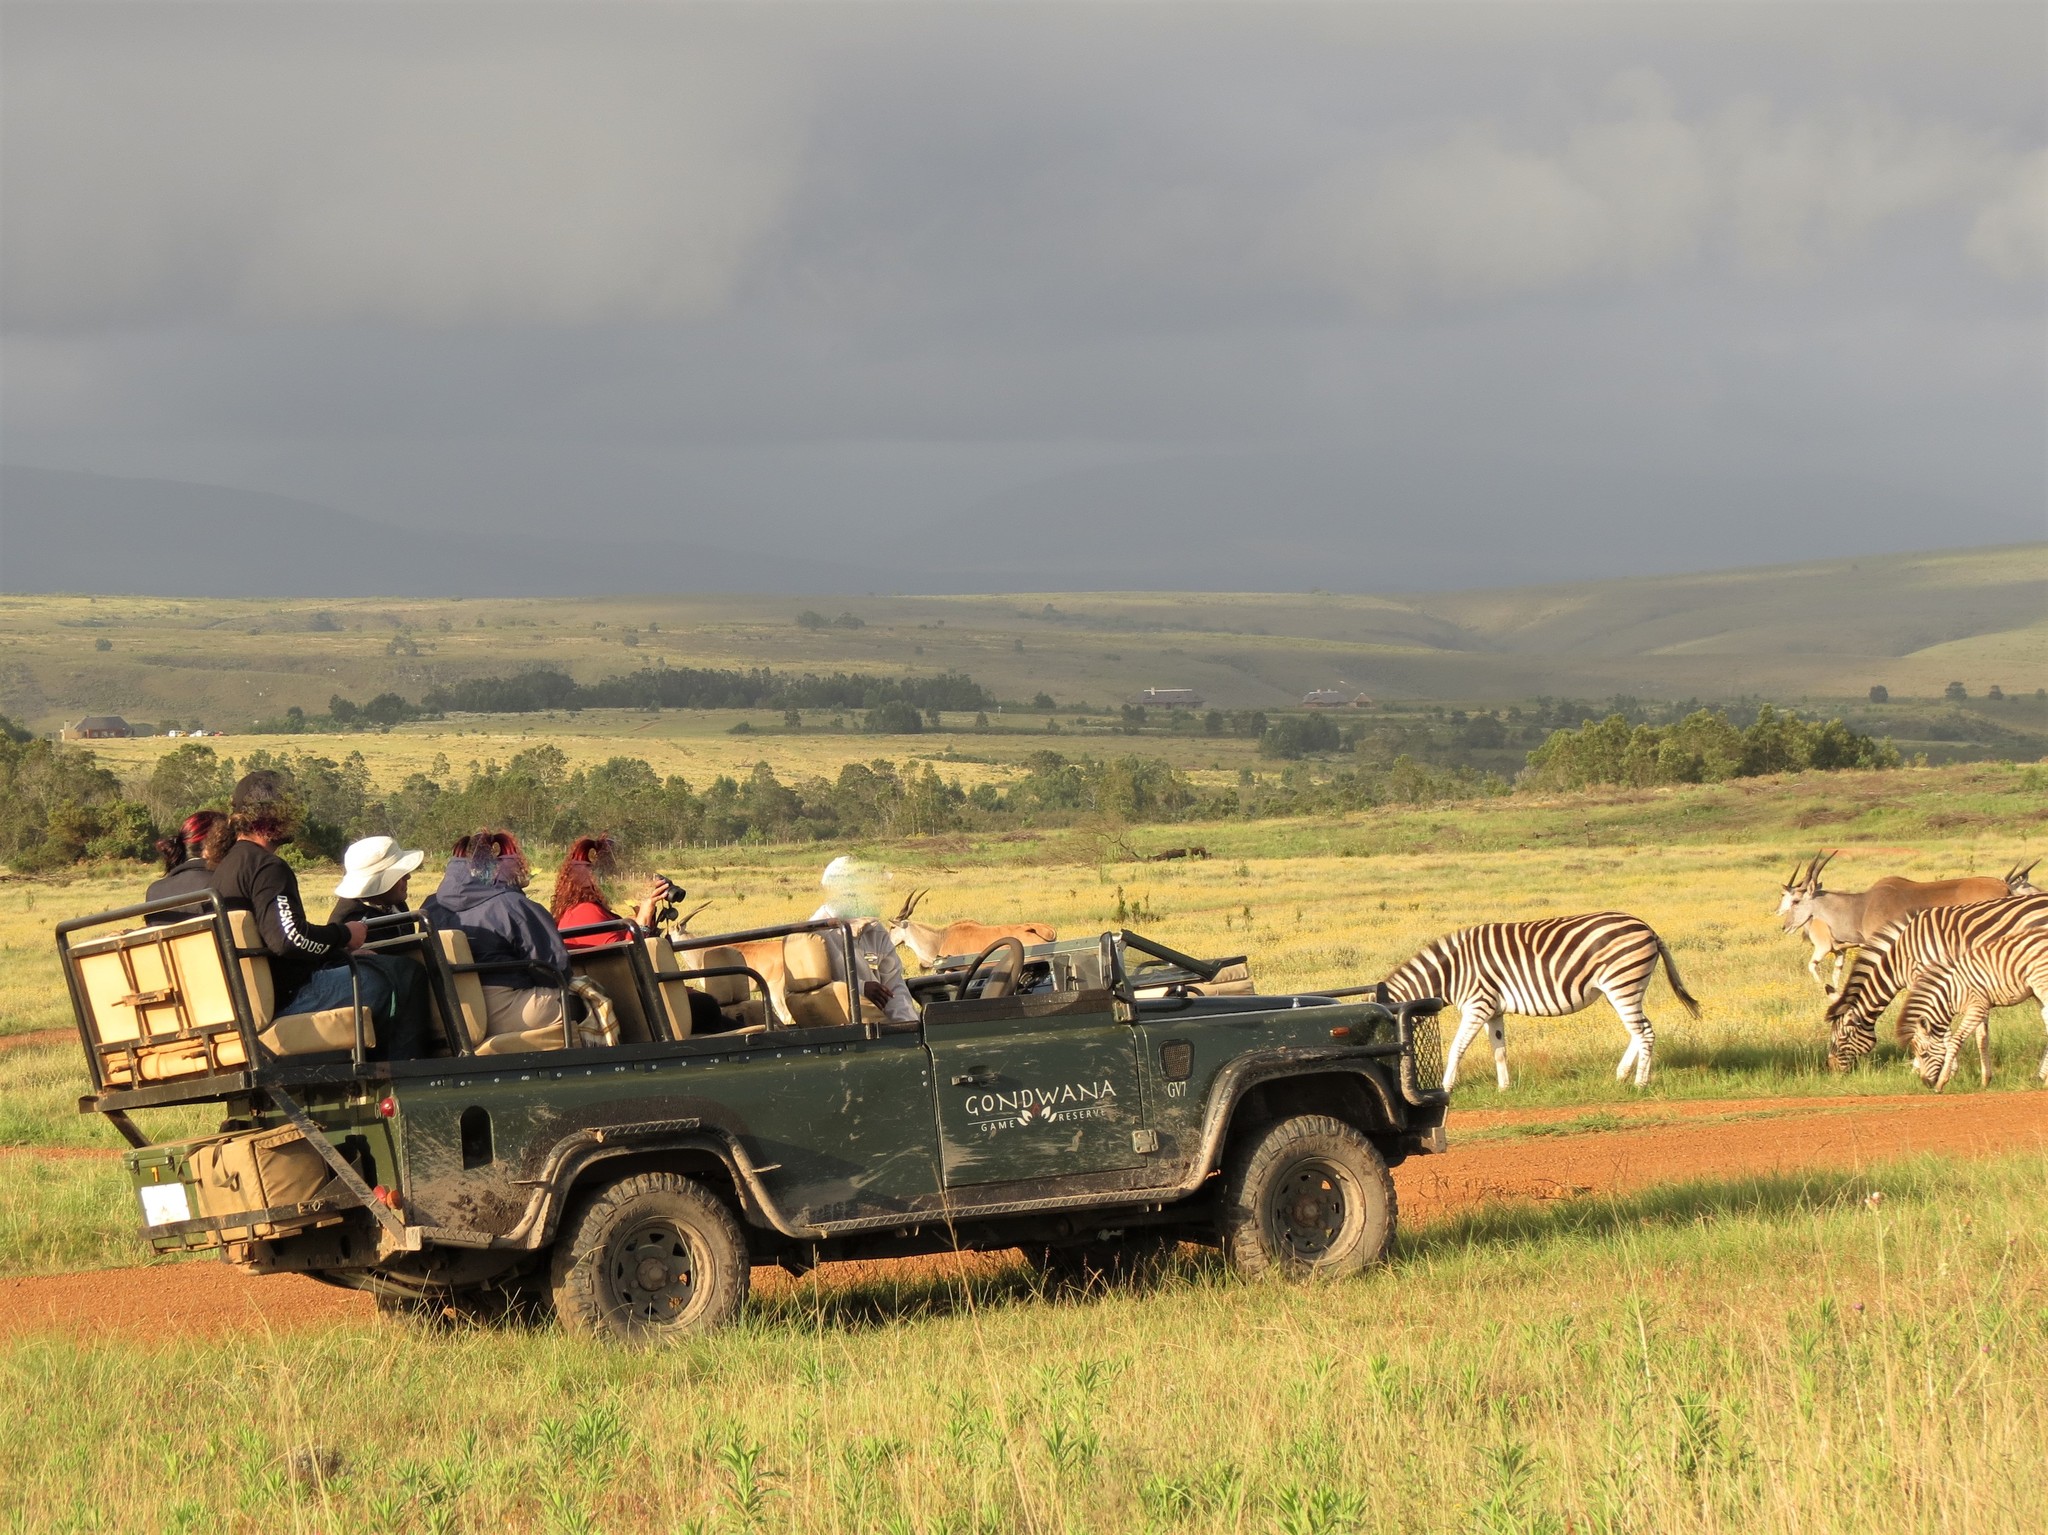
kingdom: Animalia
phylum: Chordata
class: Mammalia
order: Perissodactyla
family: Equidae
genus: Equus
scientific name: Equus quagga
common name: Plains zebra
